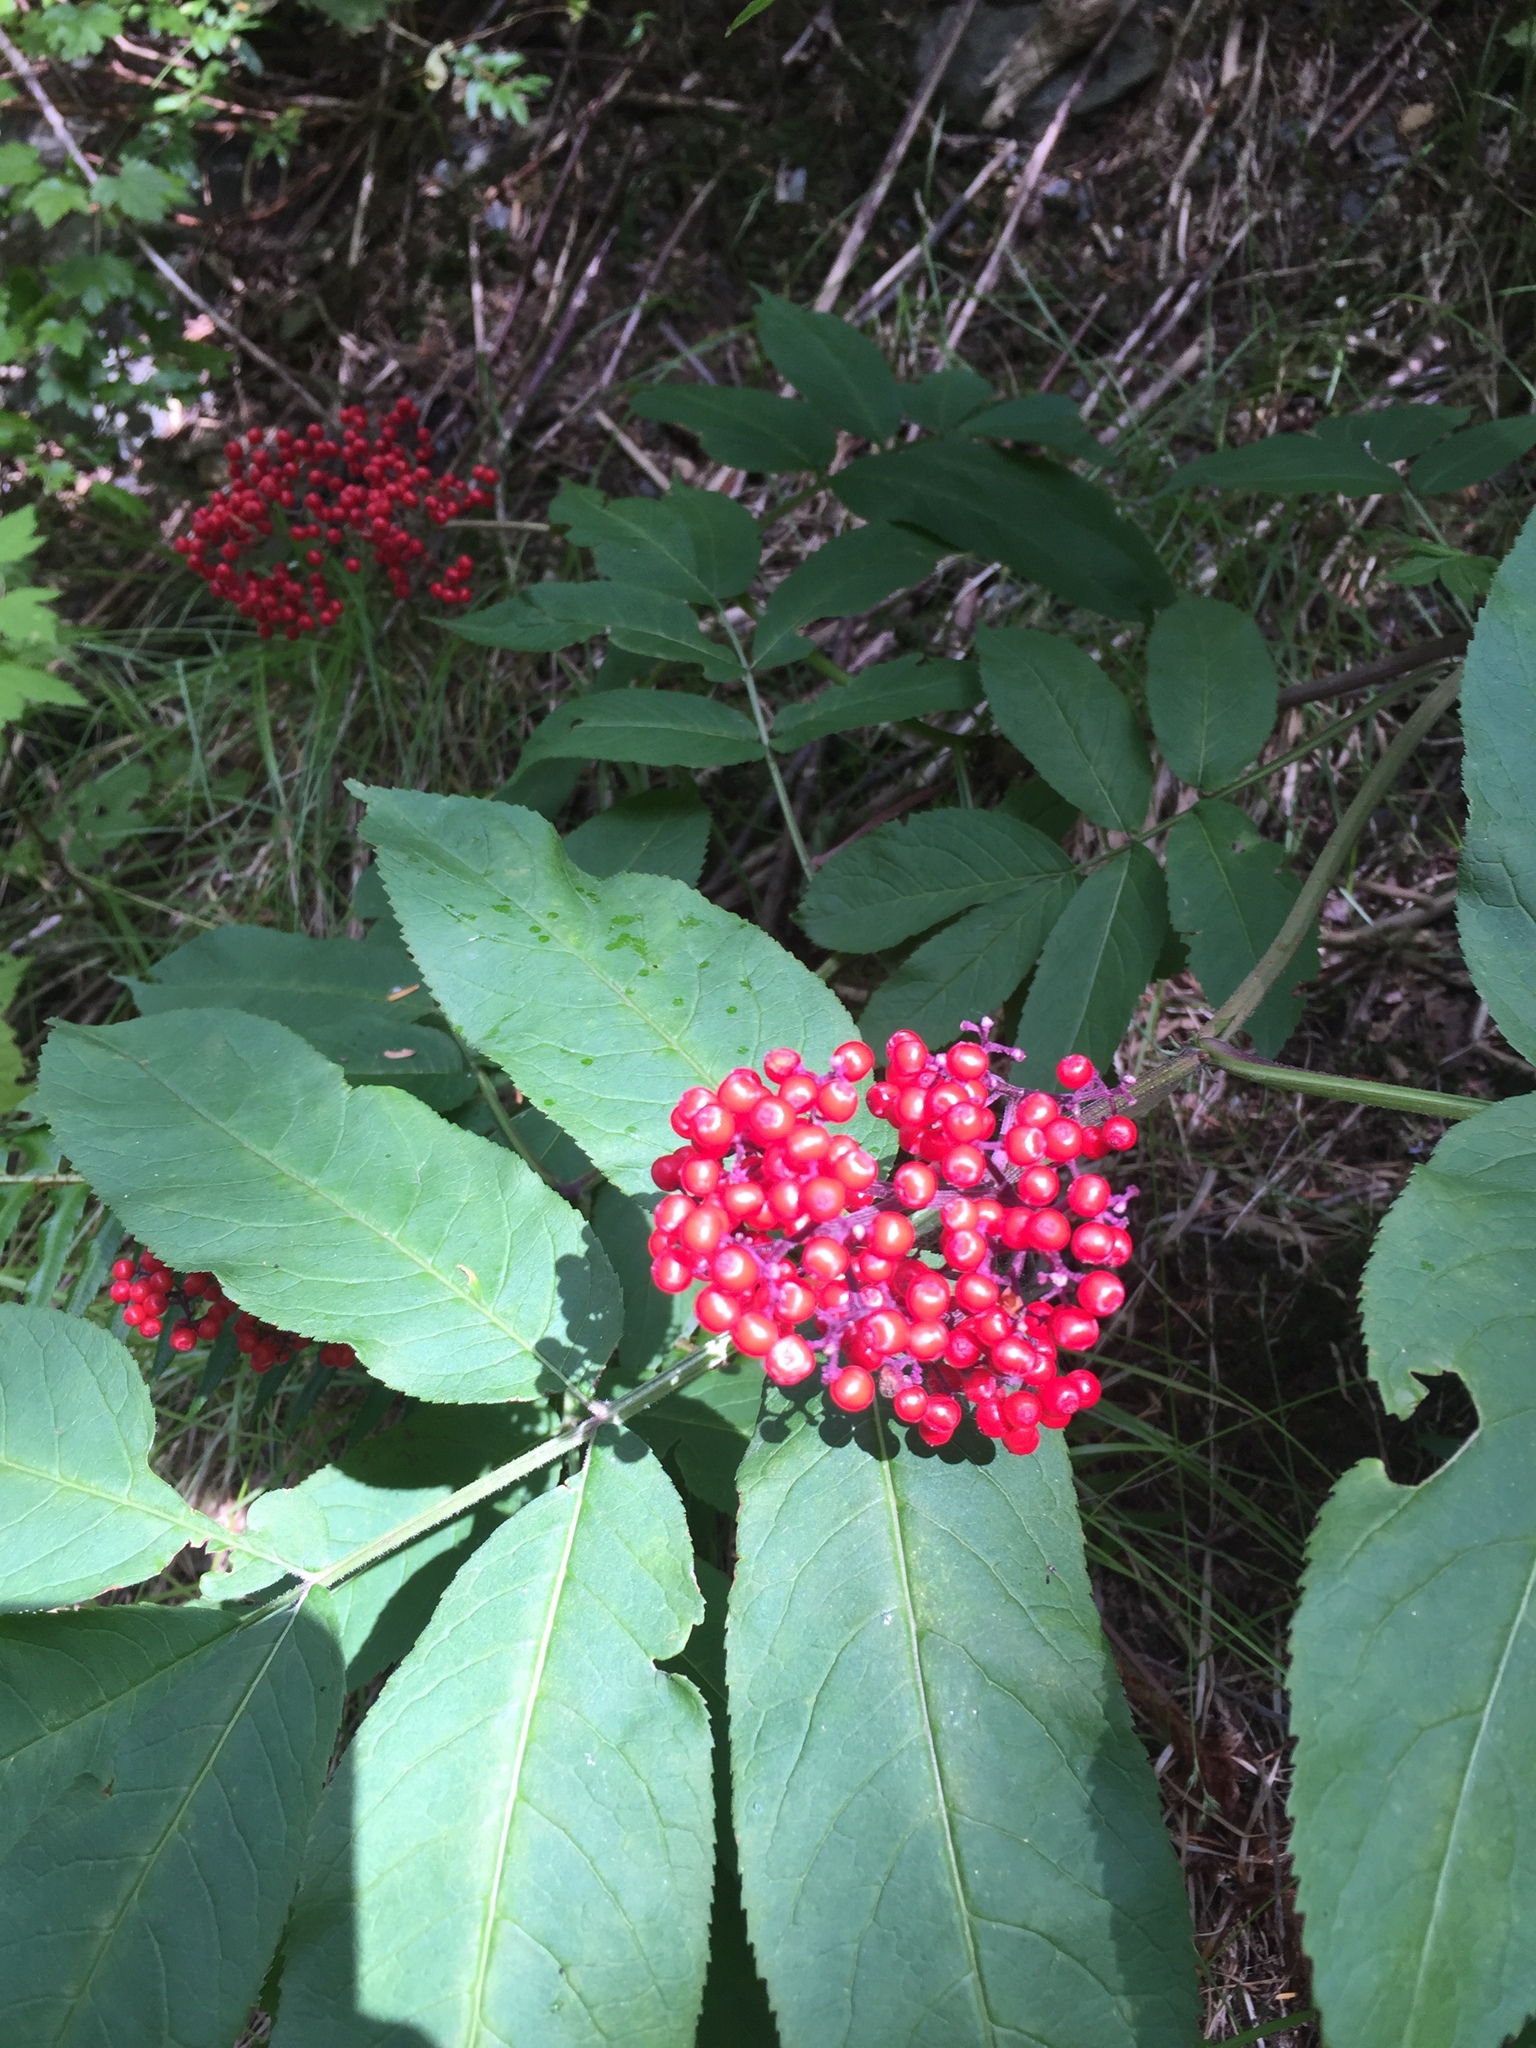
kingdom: Plantae
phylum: Tracheophyta
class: Magnoliopsida
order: Dipsacales
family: Viburnaceae
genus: Sambucus
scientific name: Sambucus racemosa
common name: Red-berried elder
